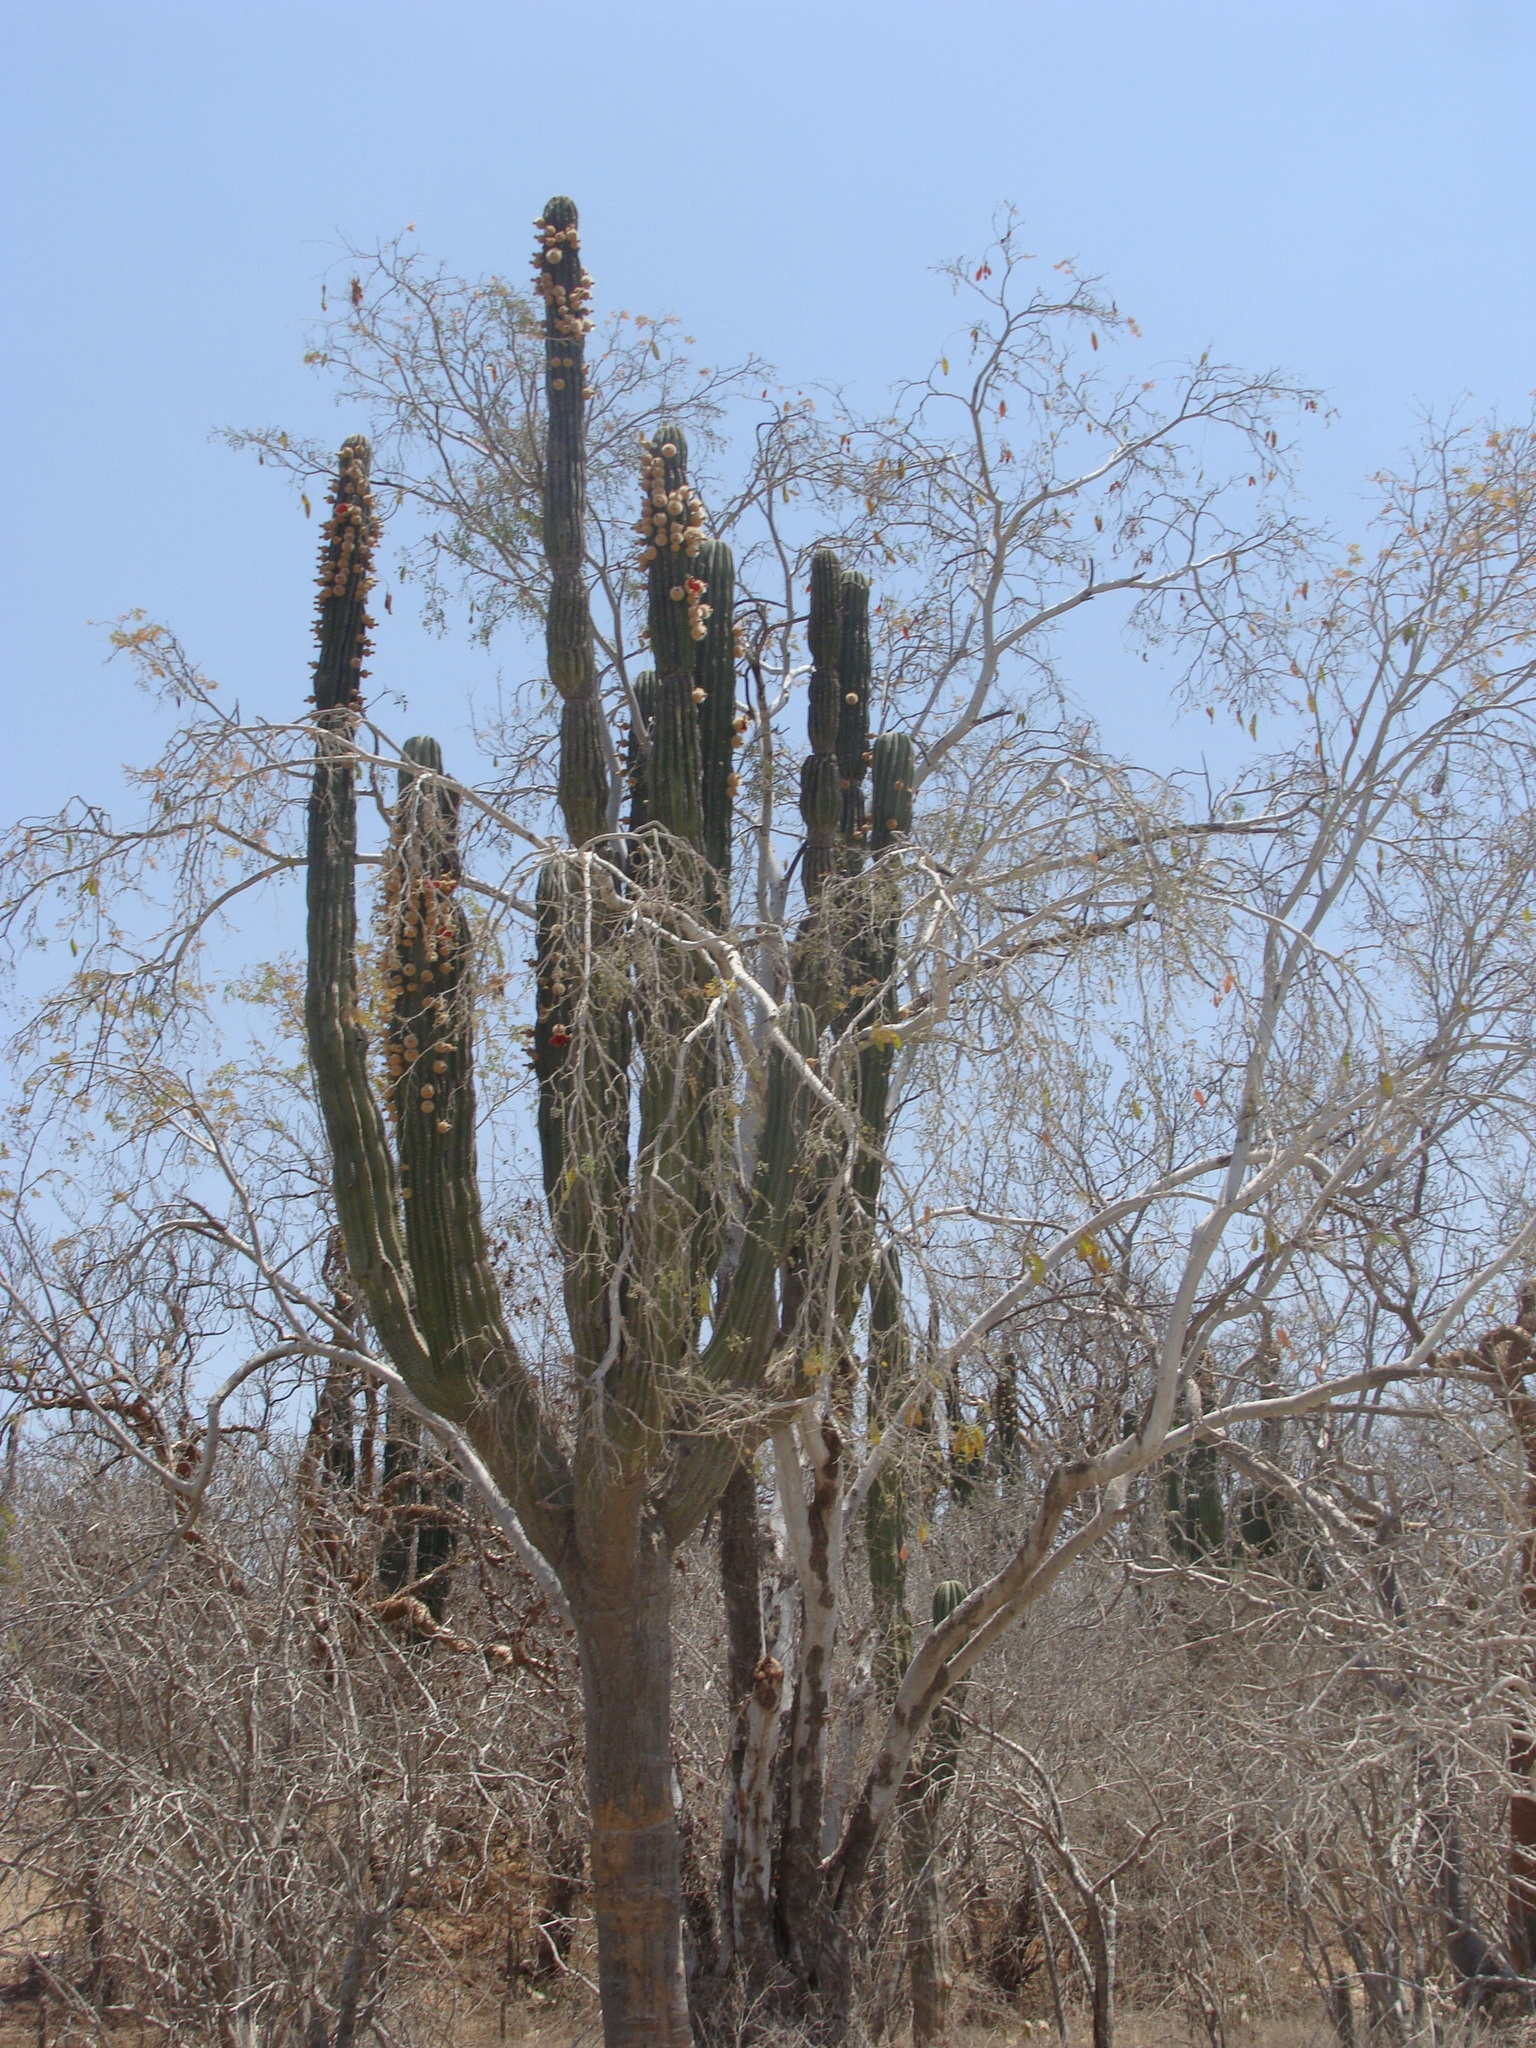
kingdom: Plantae
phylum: Tracheophyta
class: Magnoliopsida
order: Caryophyllales
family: Cactaceae
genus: Pachycereus
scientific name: Pachycereus pringlei
